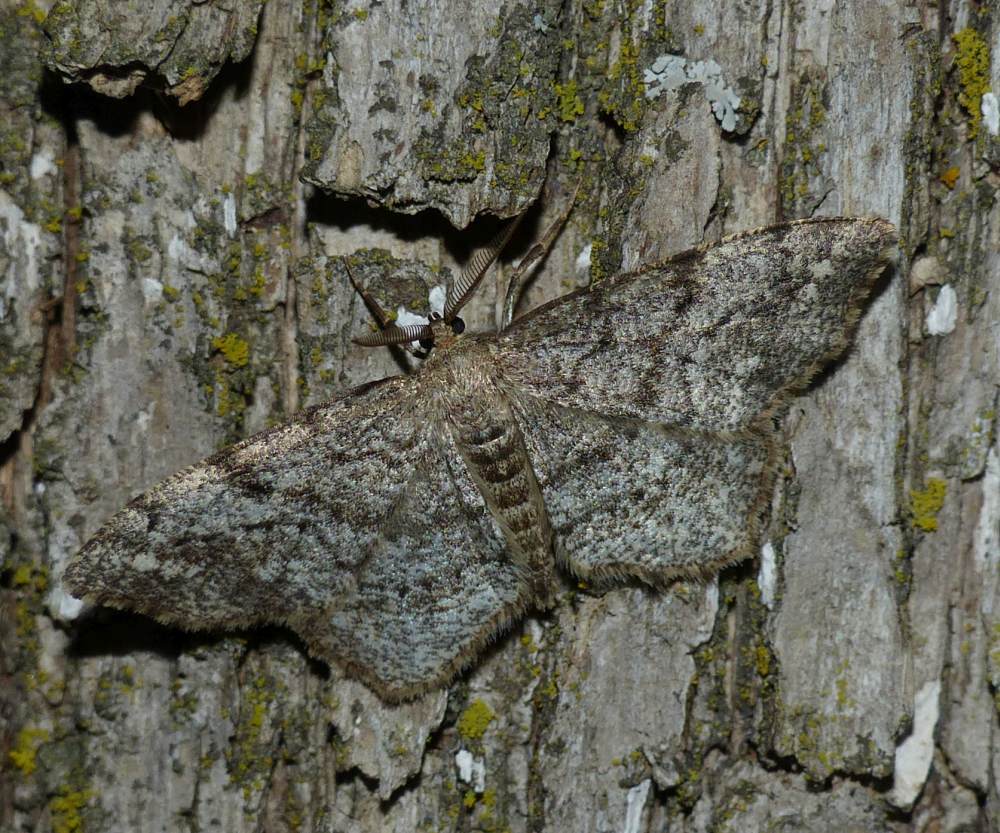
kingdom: Animalia
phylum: Arthropoda
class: Insecta
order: Lepidoptera
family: Geometridae
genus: Hypagyrtis
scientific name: Hypagyrtis unipunctata
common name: One-spotted variant
